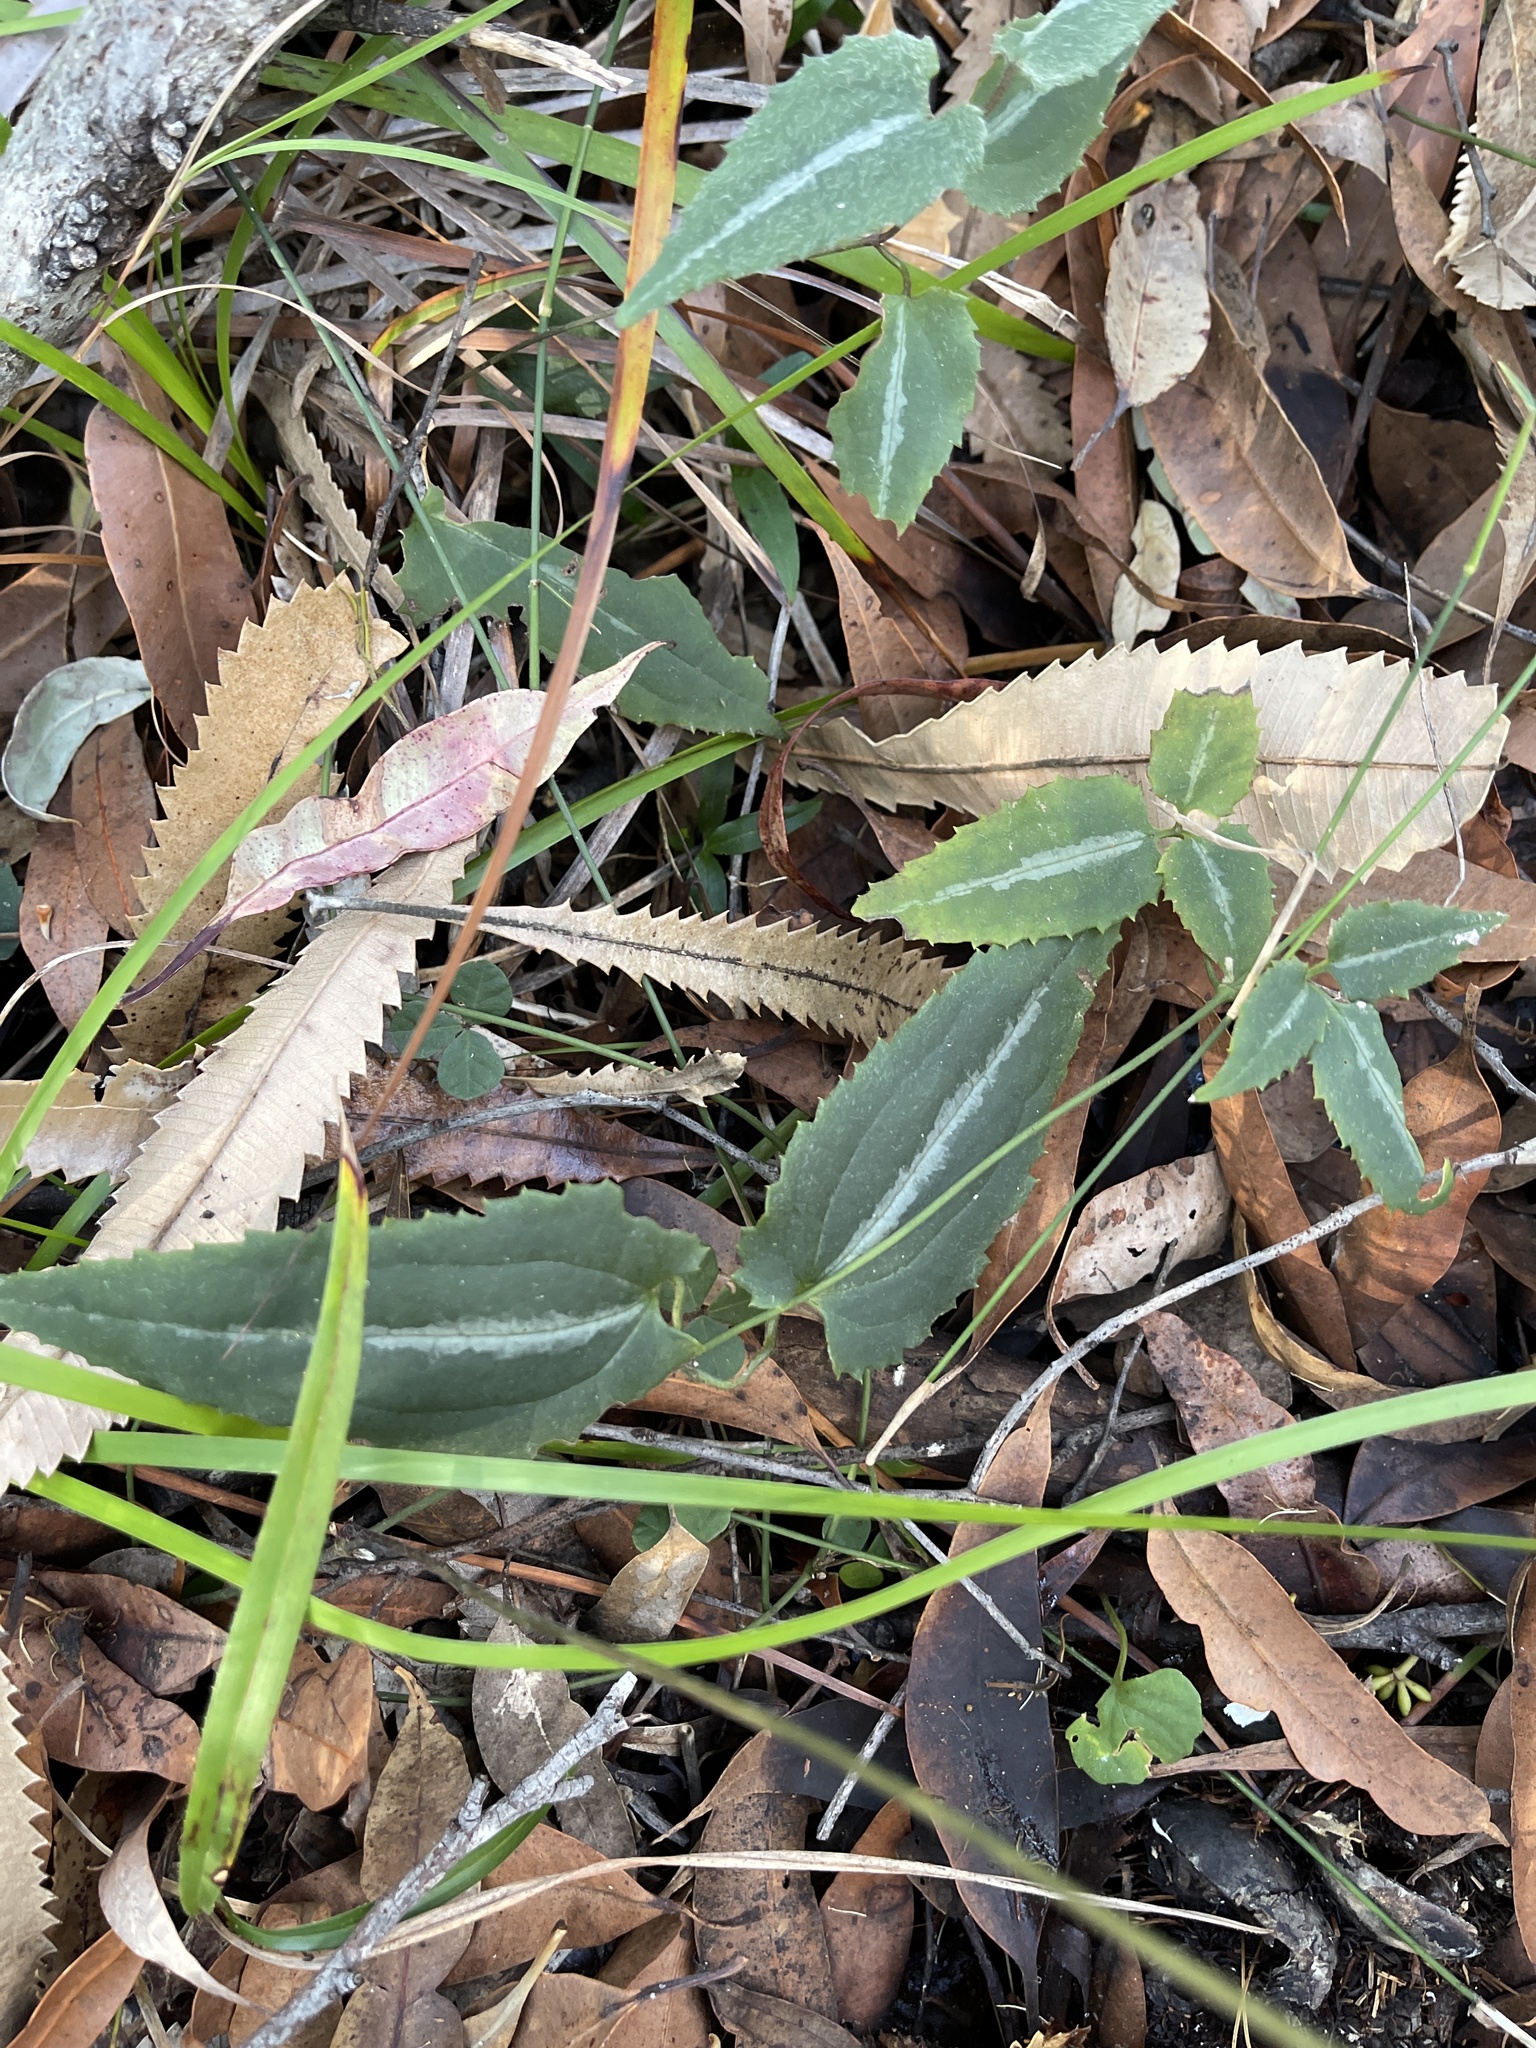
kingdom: Plantae
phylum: Tracheophyta
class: Magnoliopsida
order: Ranunculales
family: Ranunculaceae
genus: Clematis
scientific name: Clematis aristata
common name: Mountain clematis
